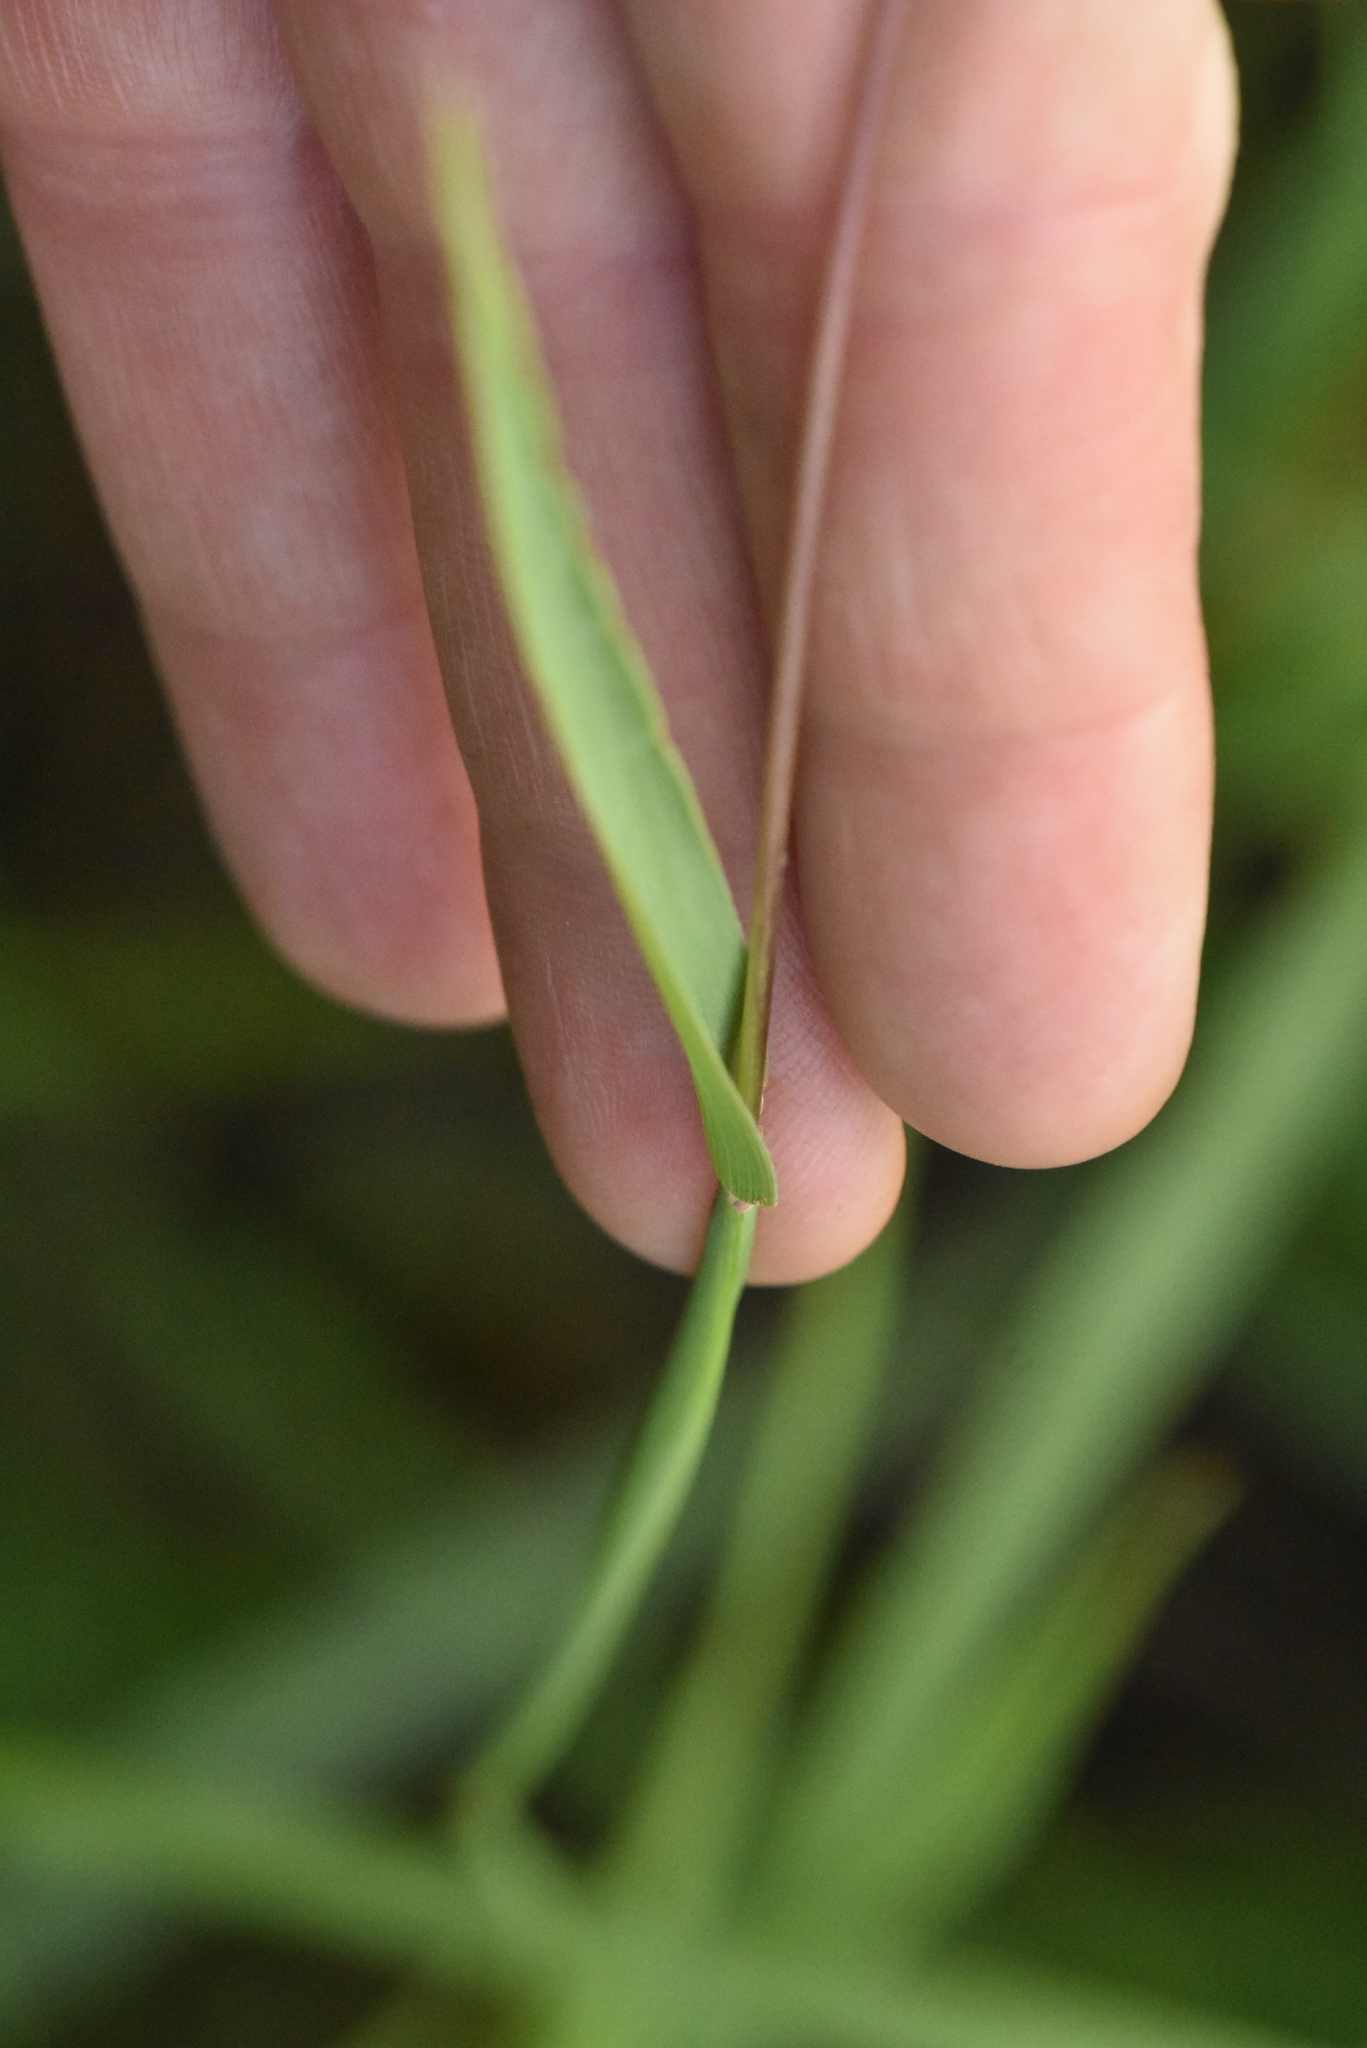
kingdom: Plantae
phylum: Tracheophyta
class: Liliopsida
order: Poales
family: Poaceae
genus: Phleum
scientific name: Phleum pratense
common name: Timothy grass
